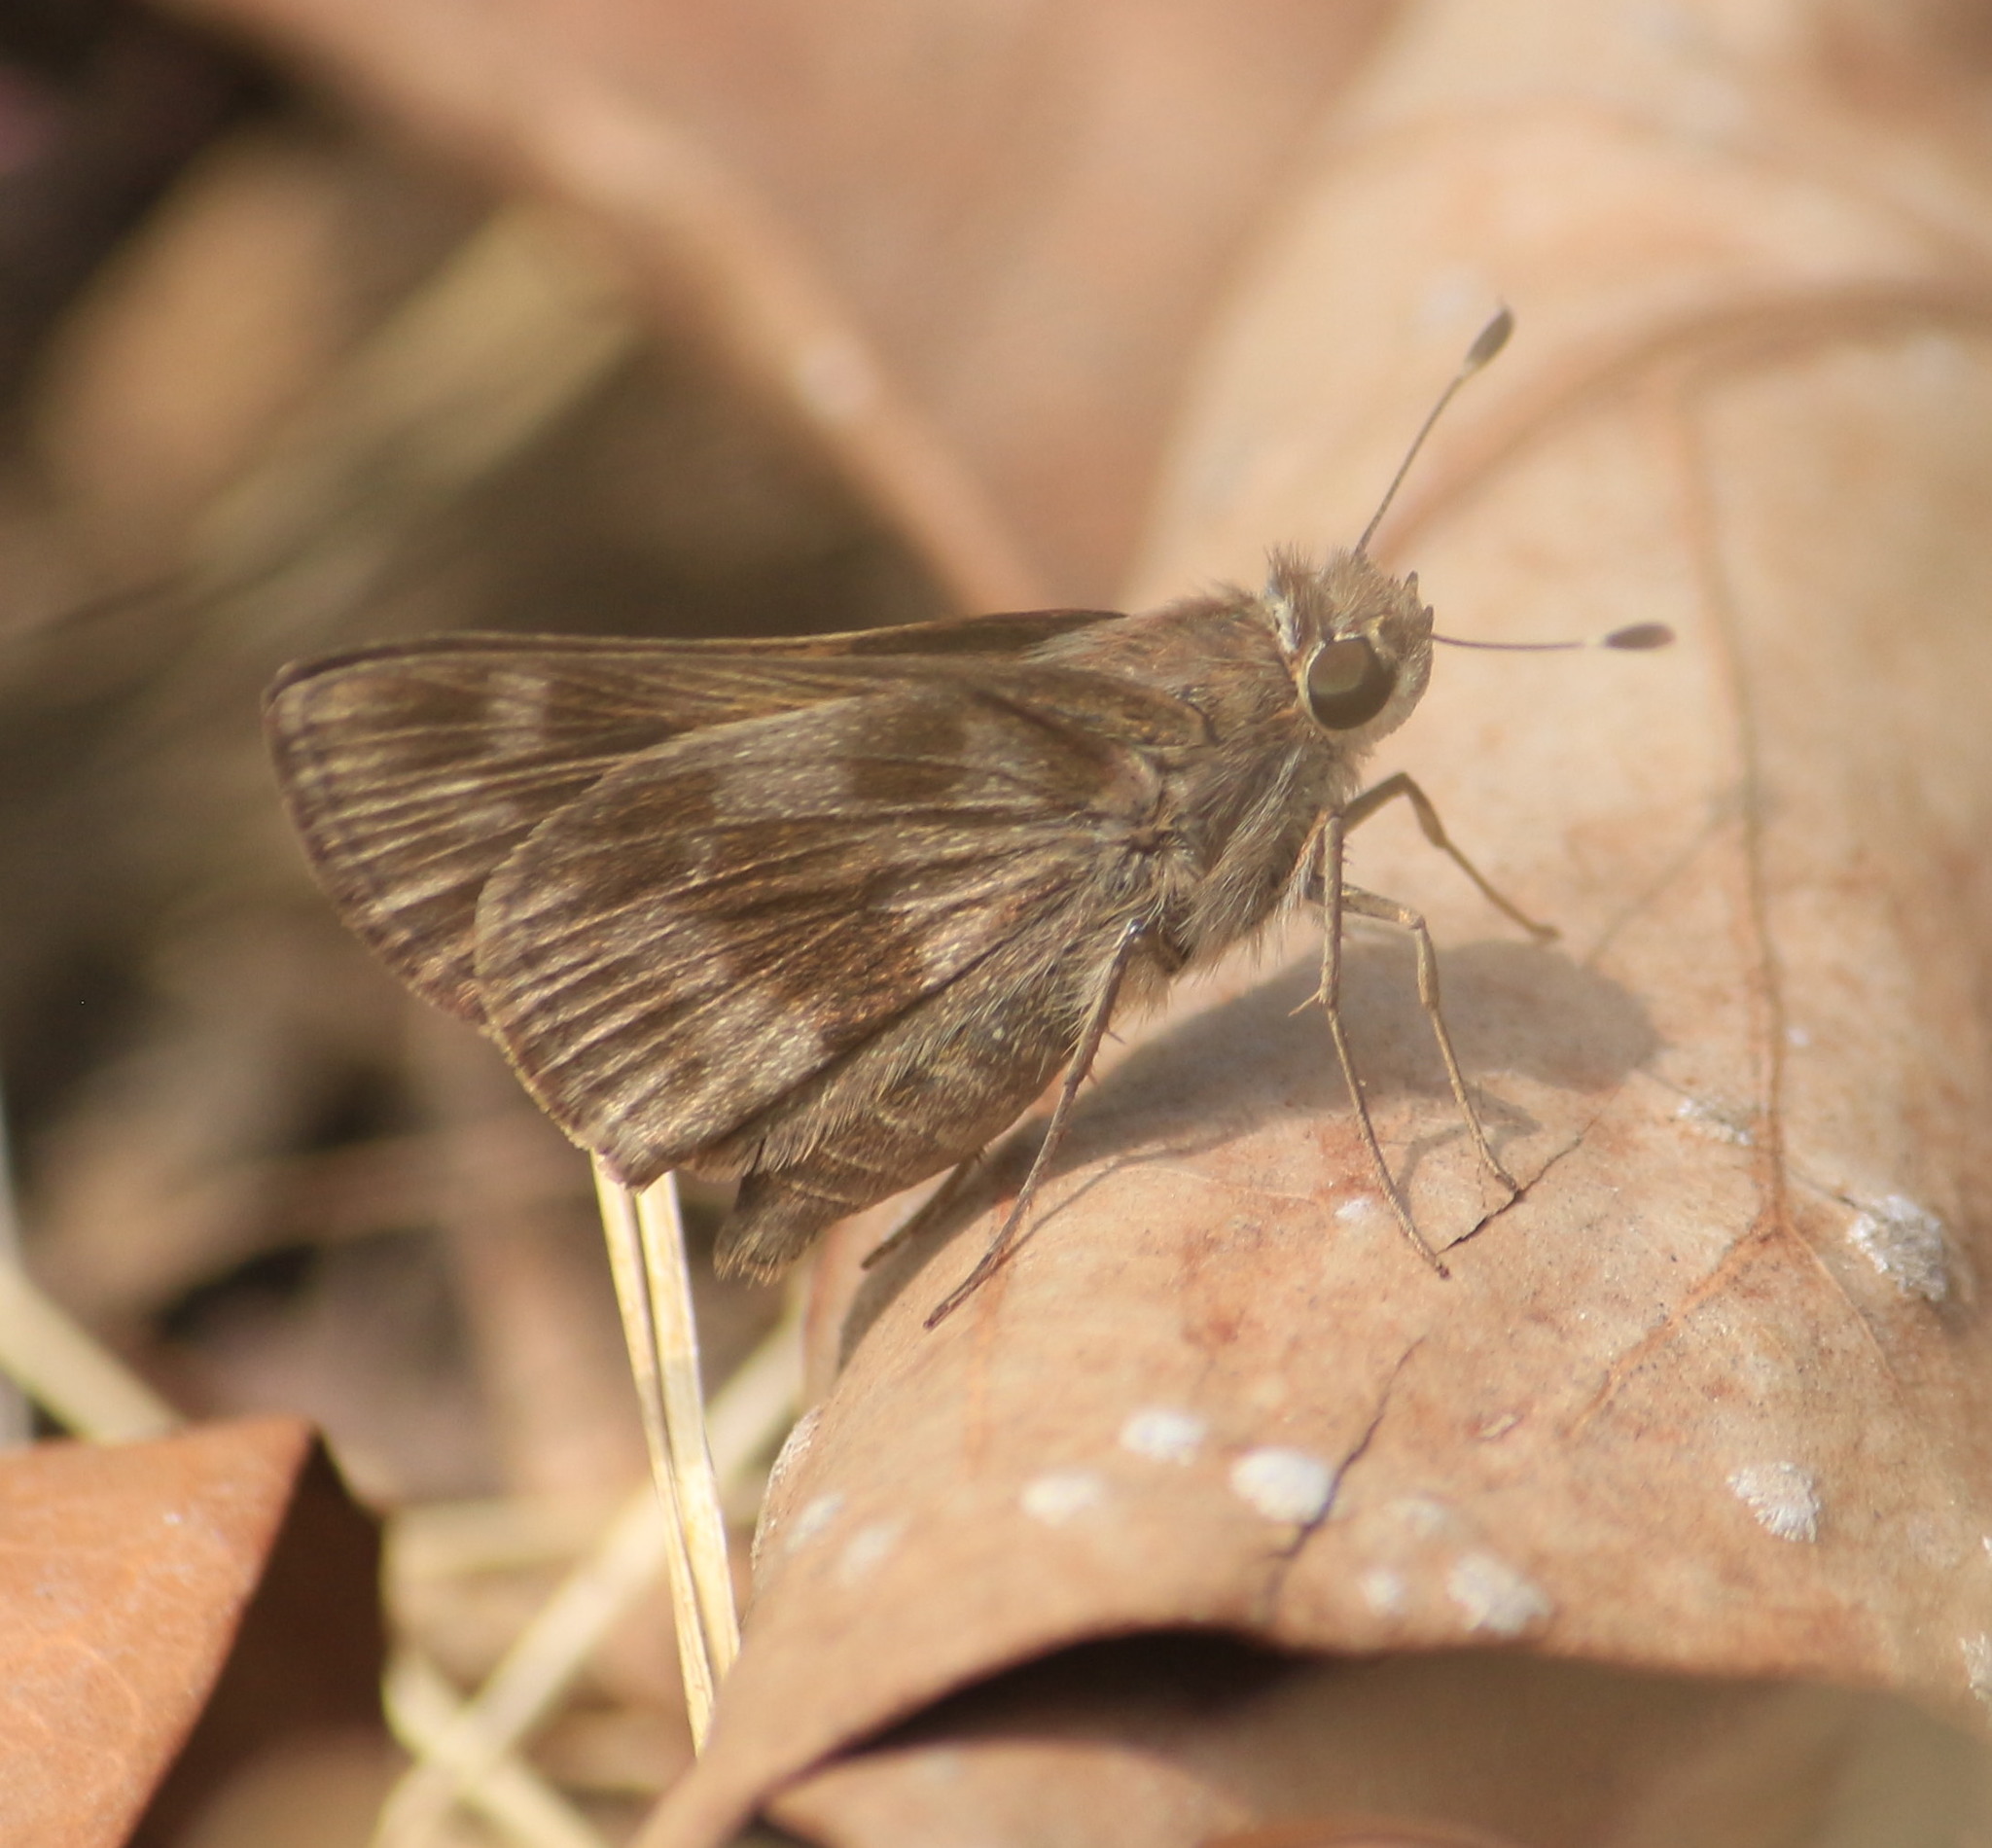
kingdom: Animalia
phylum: Arthropoda
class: Insecta
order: Lepidoptera
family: Hesperiidae
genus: Pompeius
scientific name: Pompeius pompeius
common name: Pompeius skipper
